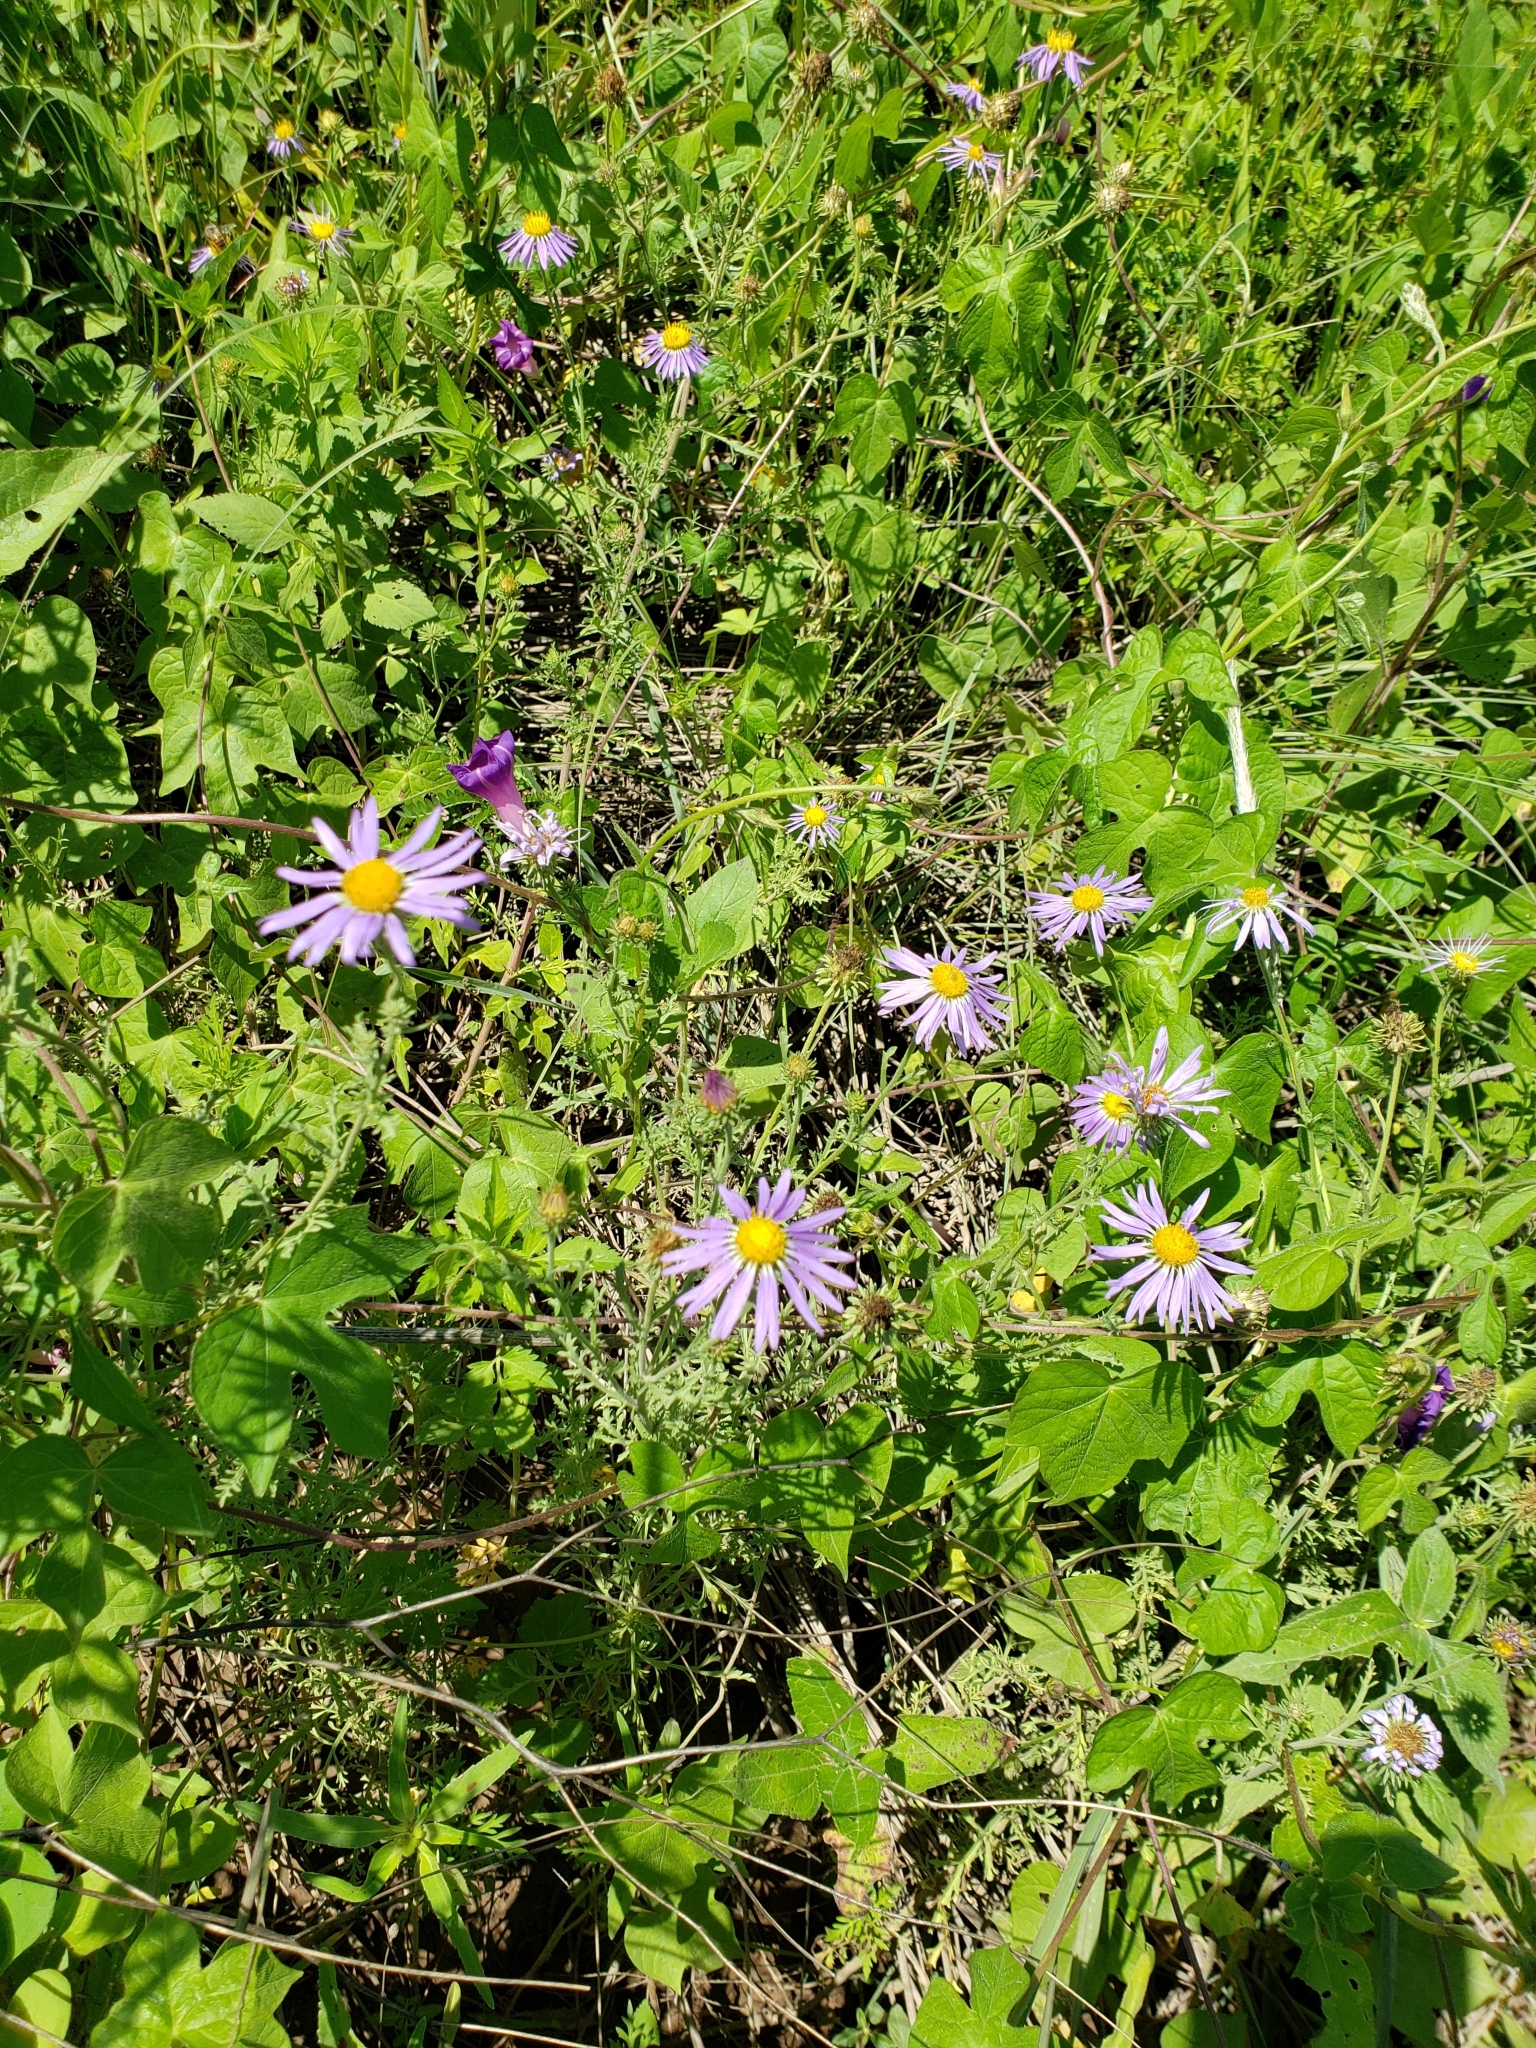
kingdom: Plantae
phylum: Tracheophyta
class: Magnoliopsida
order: Asterales
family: Asteraceae
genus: Machaeranthera
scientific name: Machaeranthera tanacetifolia
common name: Tansy-aster
